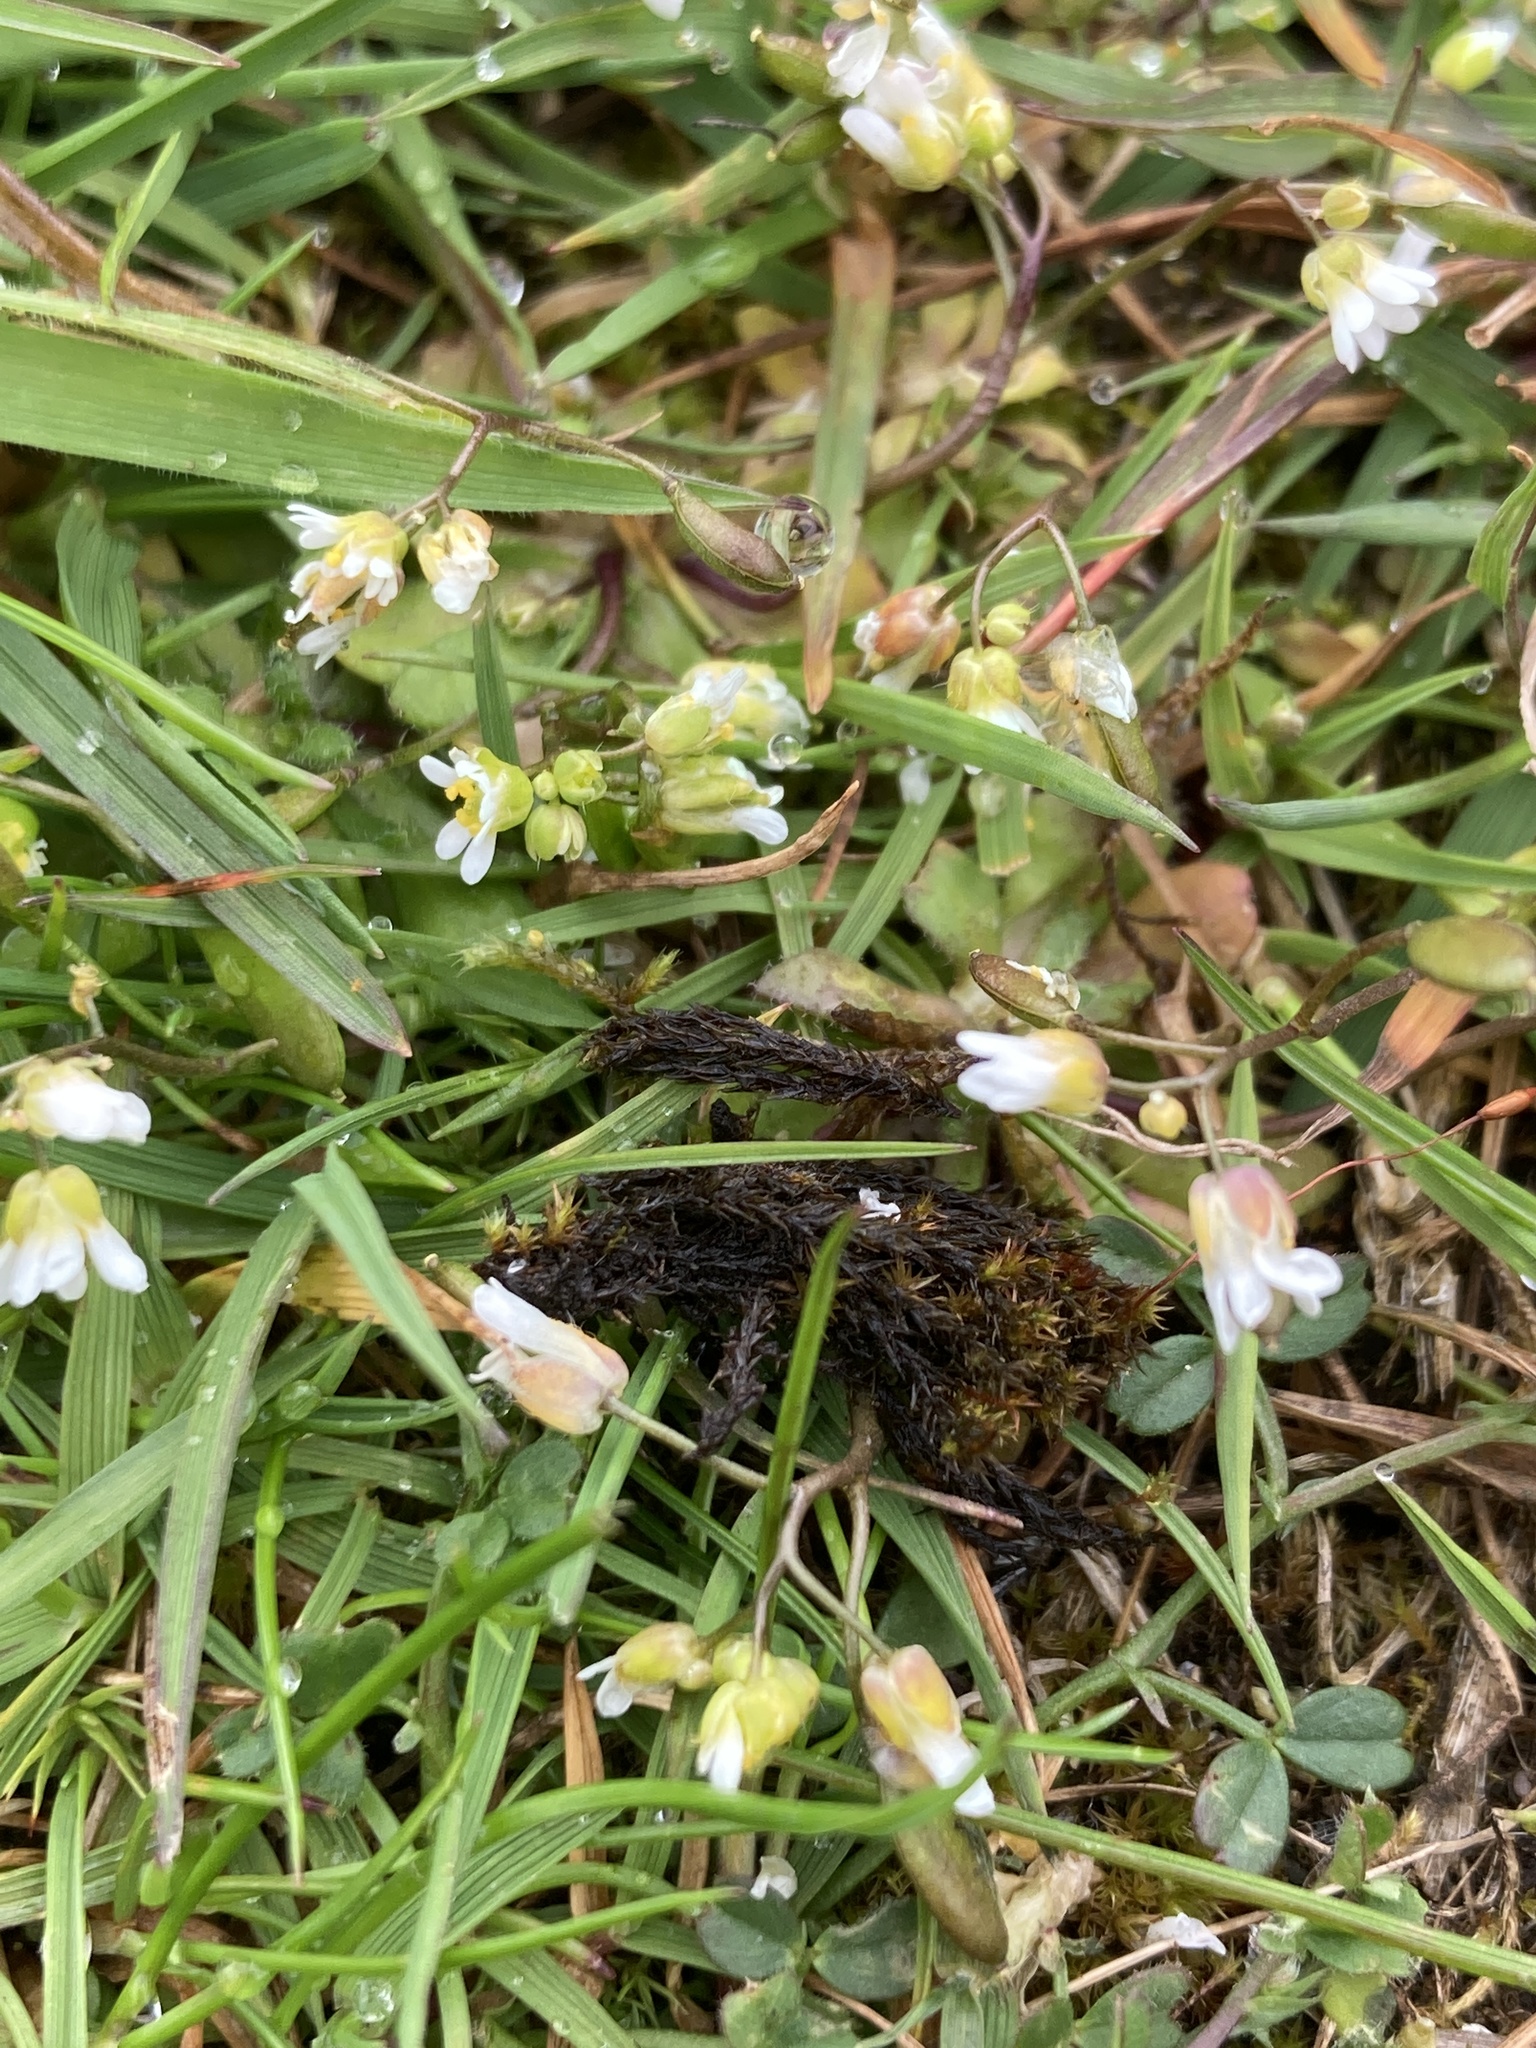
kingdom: Plantae
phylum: Tracheophyta
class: Magnoliopsida
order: Brassicales
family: Brassicaceae
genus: Draba
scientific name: Draba verna
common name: Spring draba
